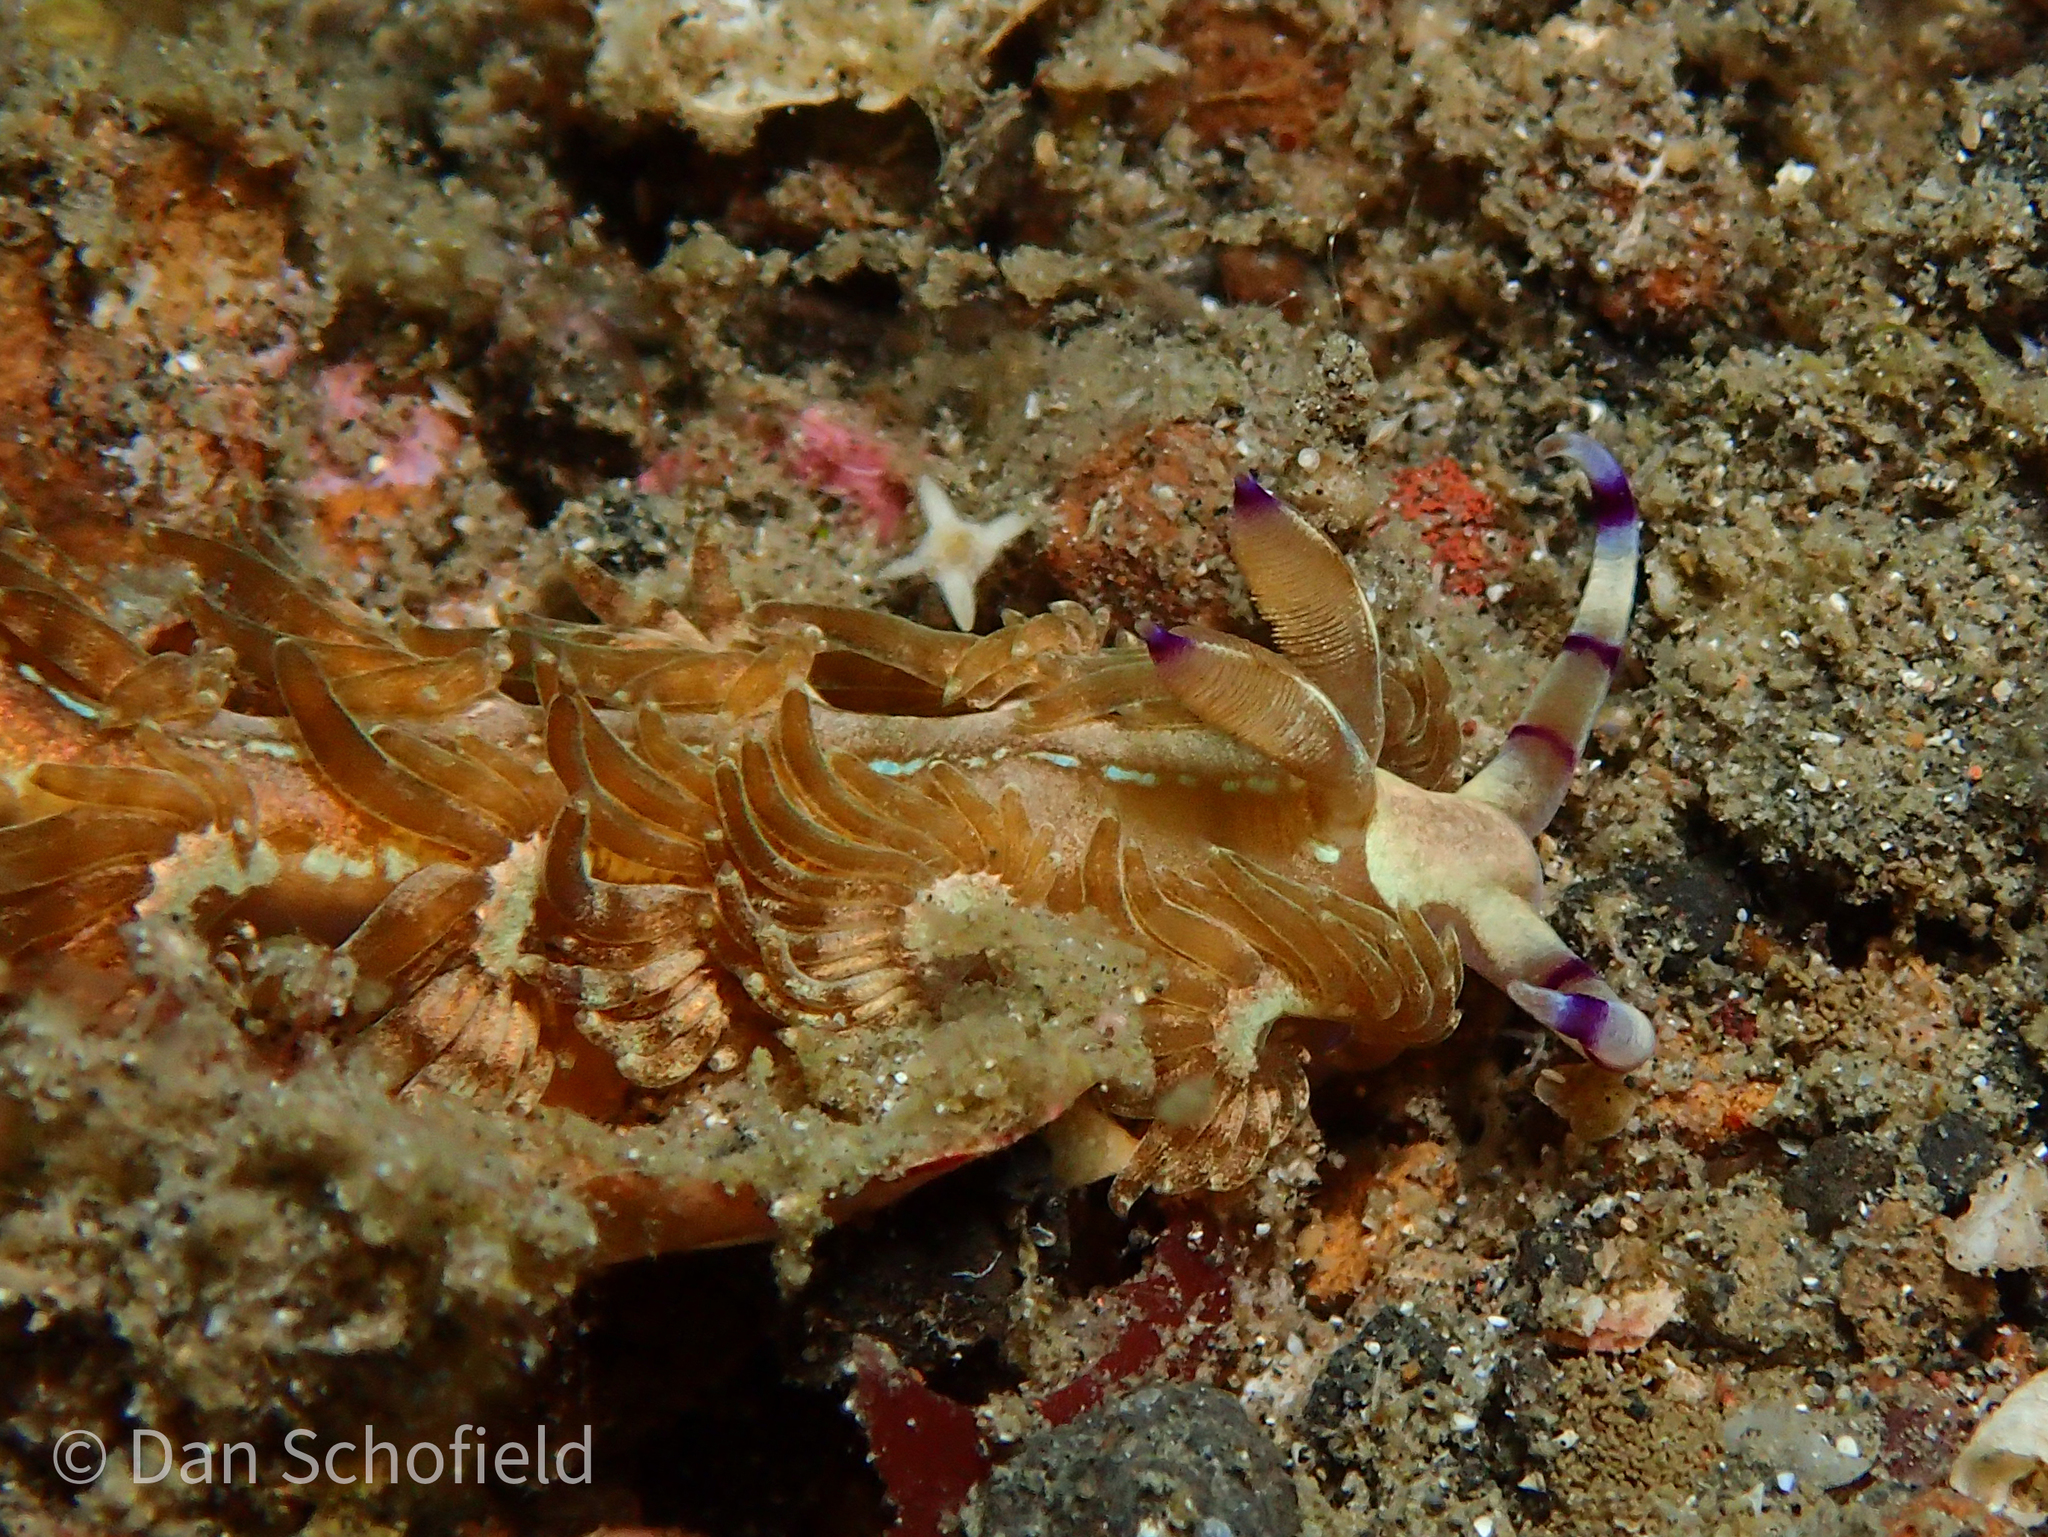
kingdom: Animalia
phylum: Mollusca
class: Gastropoda
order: Nudibranchia
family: Facelinidae
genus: Pteraeolidia
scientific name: Pteraeolidia semperi
